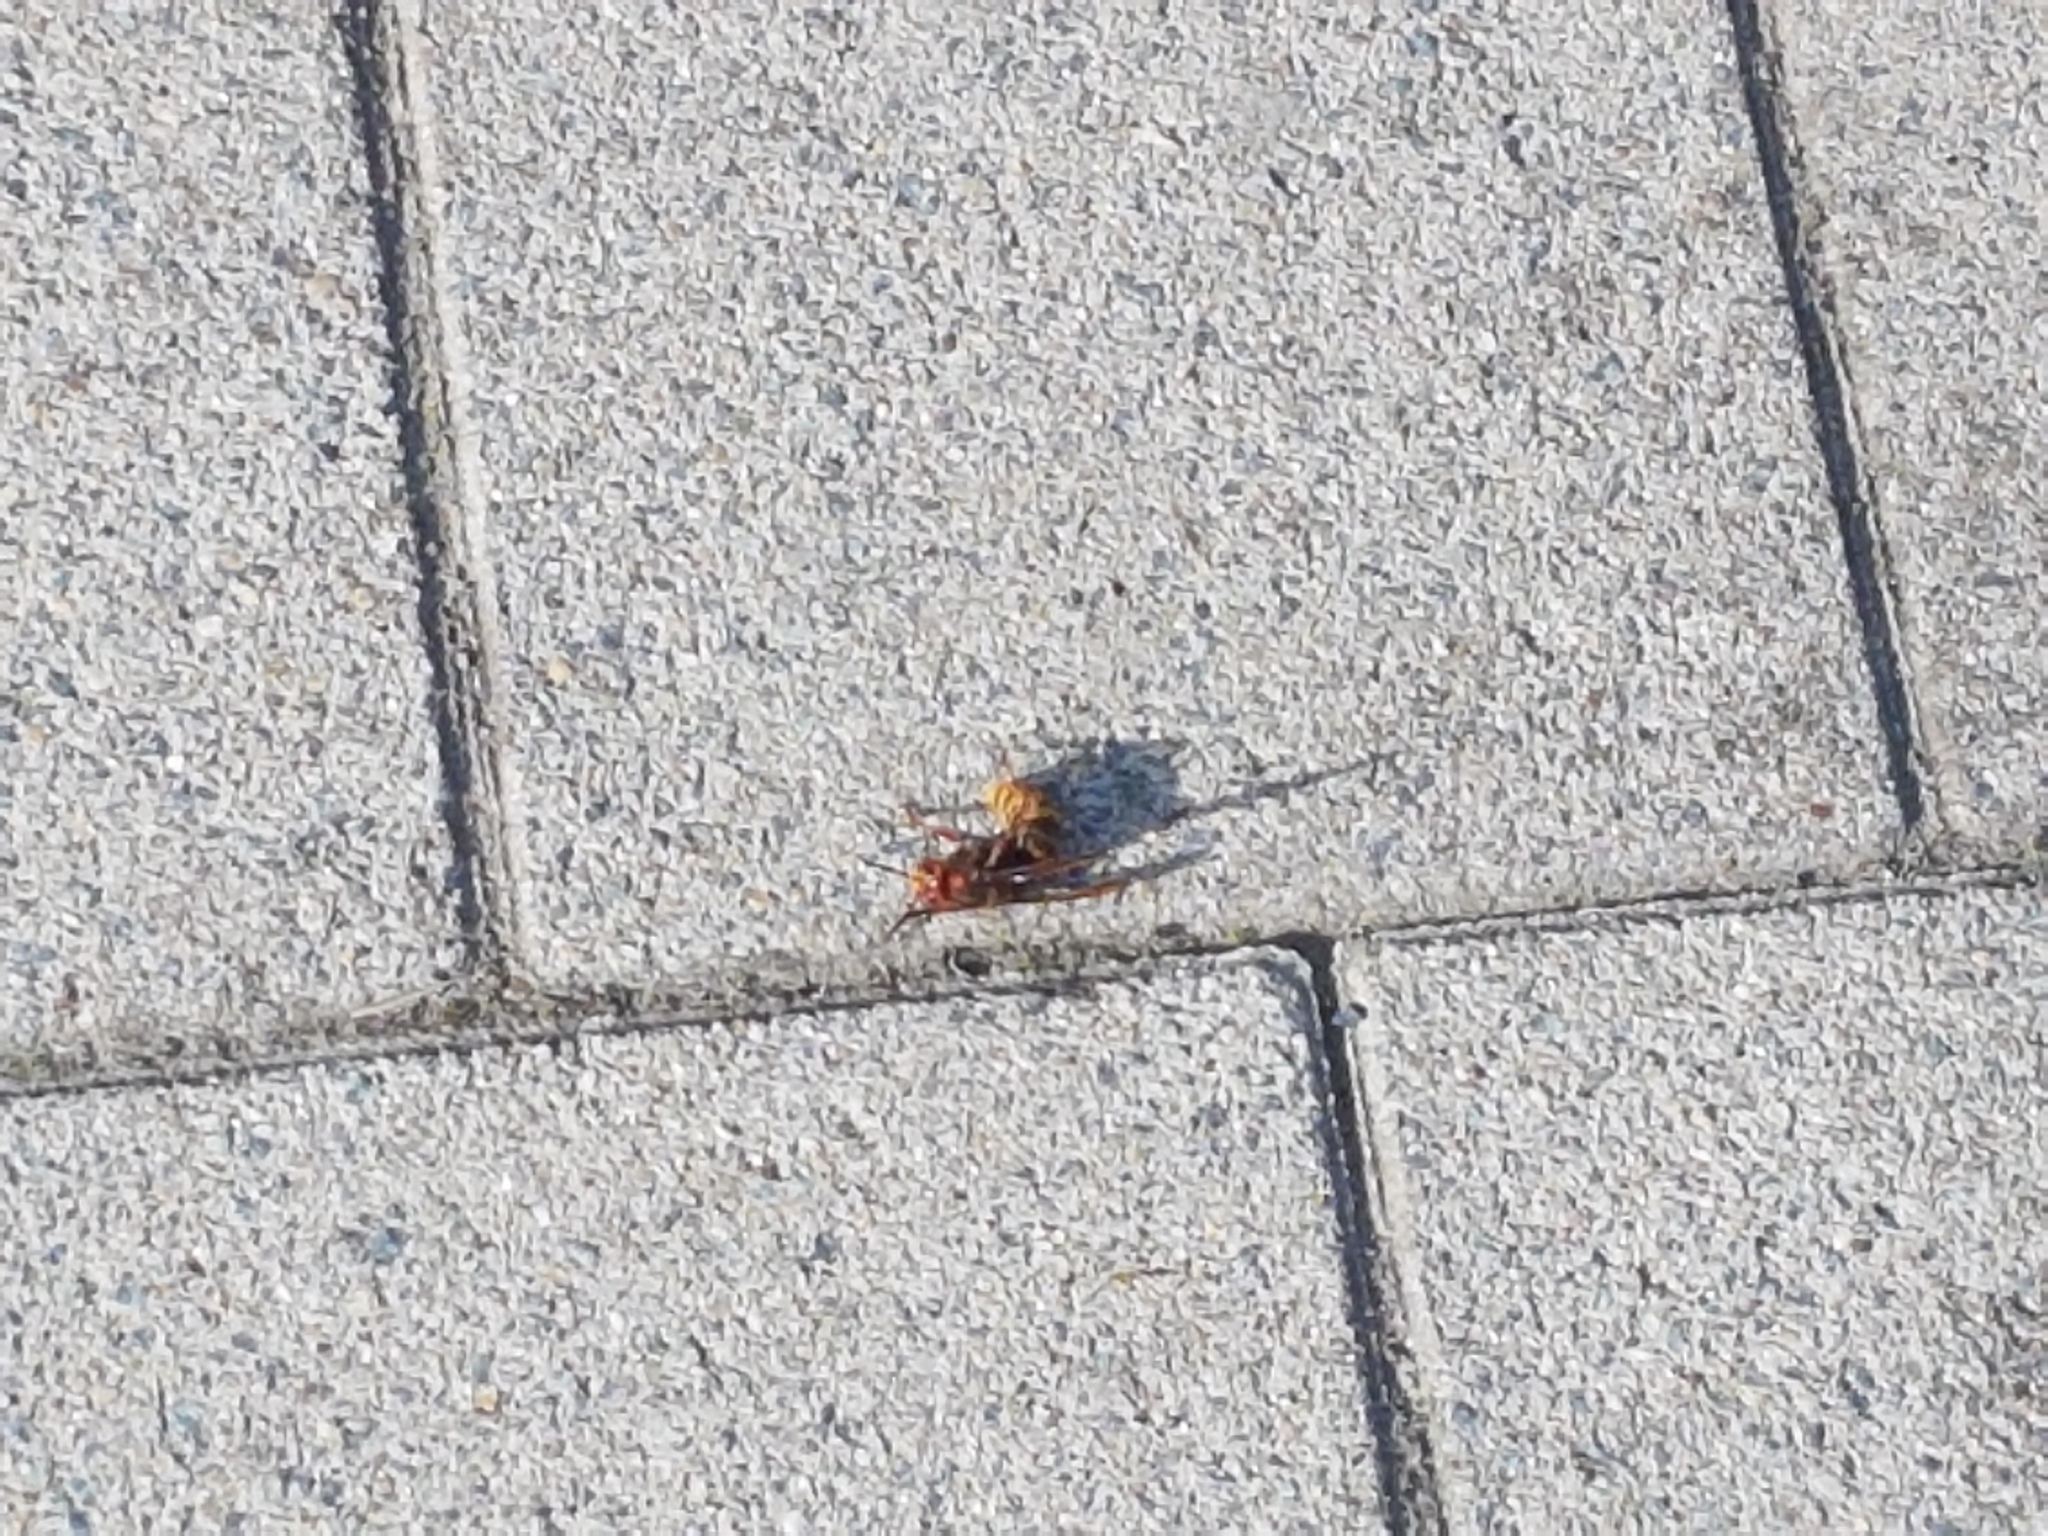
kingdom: Animalia
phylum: Arthropoda
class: Insecta
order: Hymenoptera
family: Vespidae
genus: Vespa
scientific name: Vespa crabro
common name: Hornet
